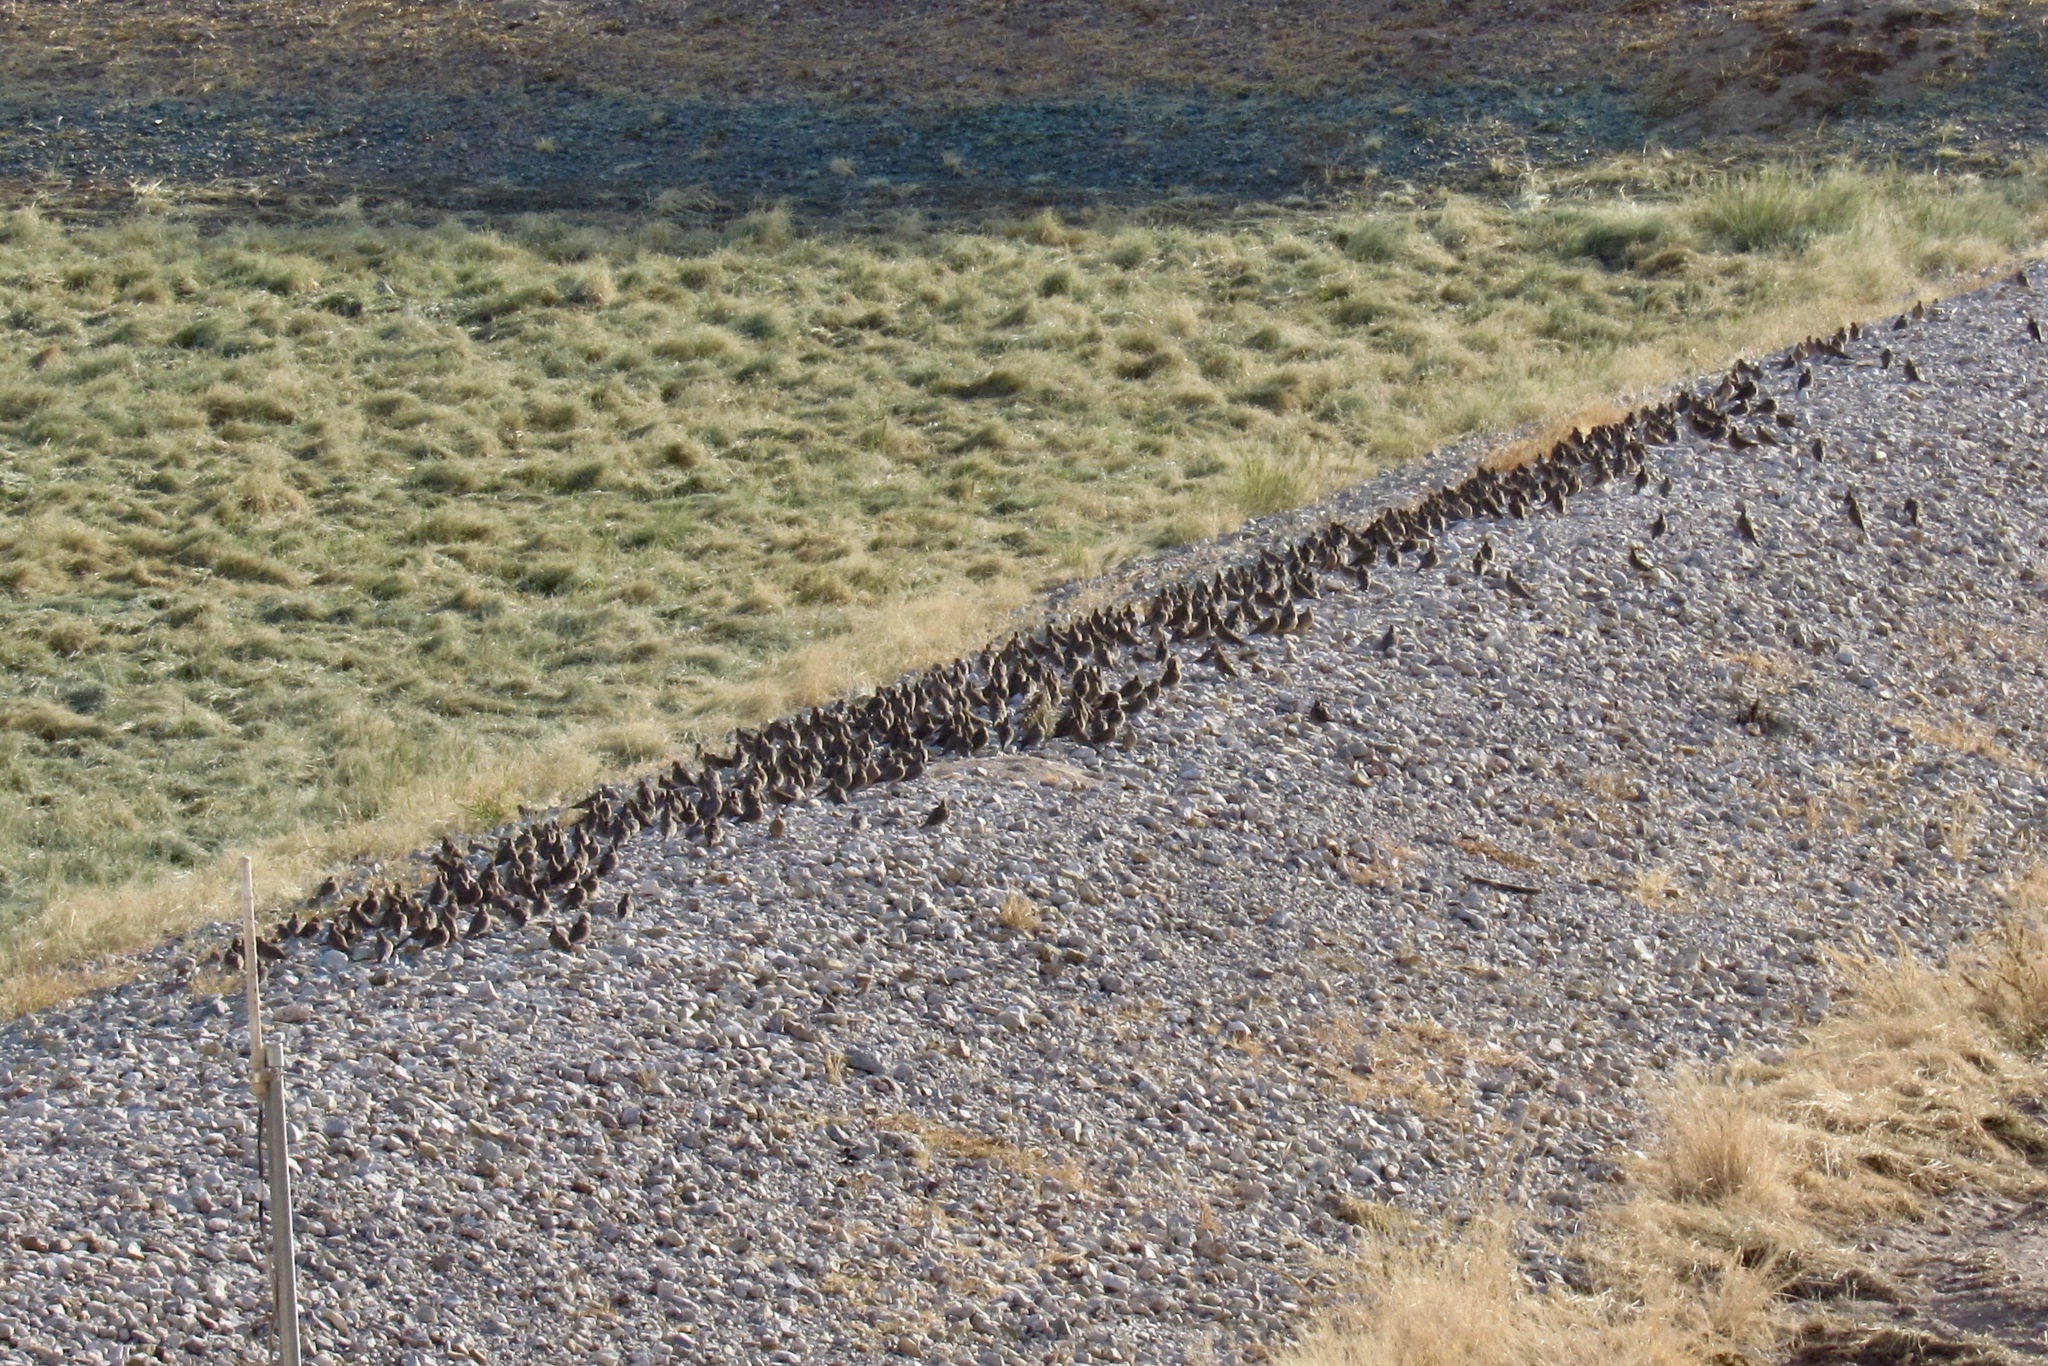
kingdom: Animalia
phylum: Chordata
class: Aves
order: Columbiformes
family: Columbidae
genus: Zenaida
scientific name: Zenaida macroura
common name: Mourning dove
